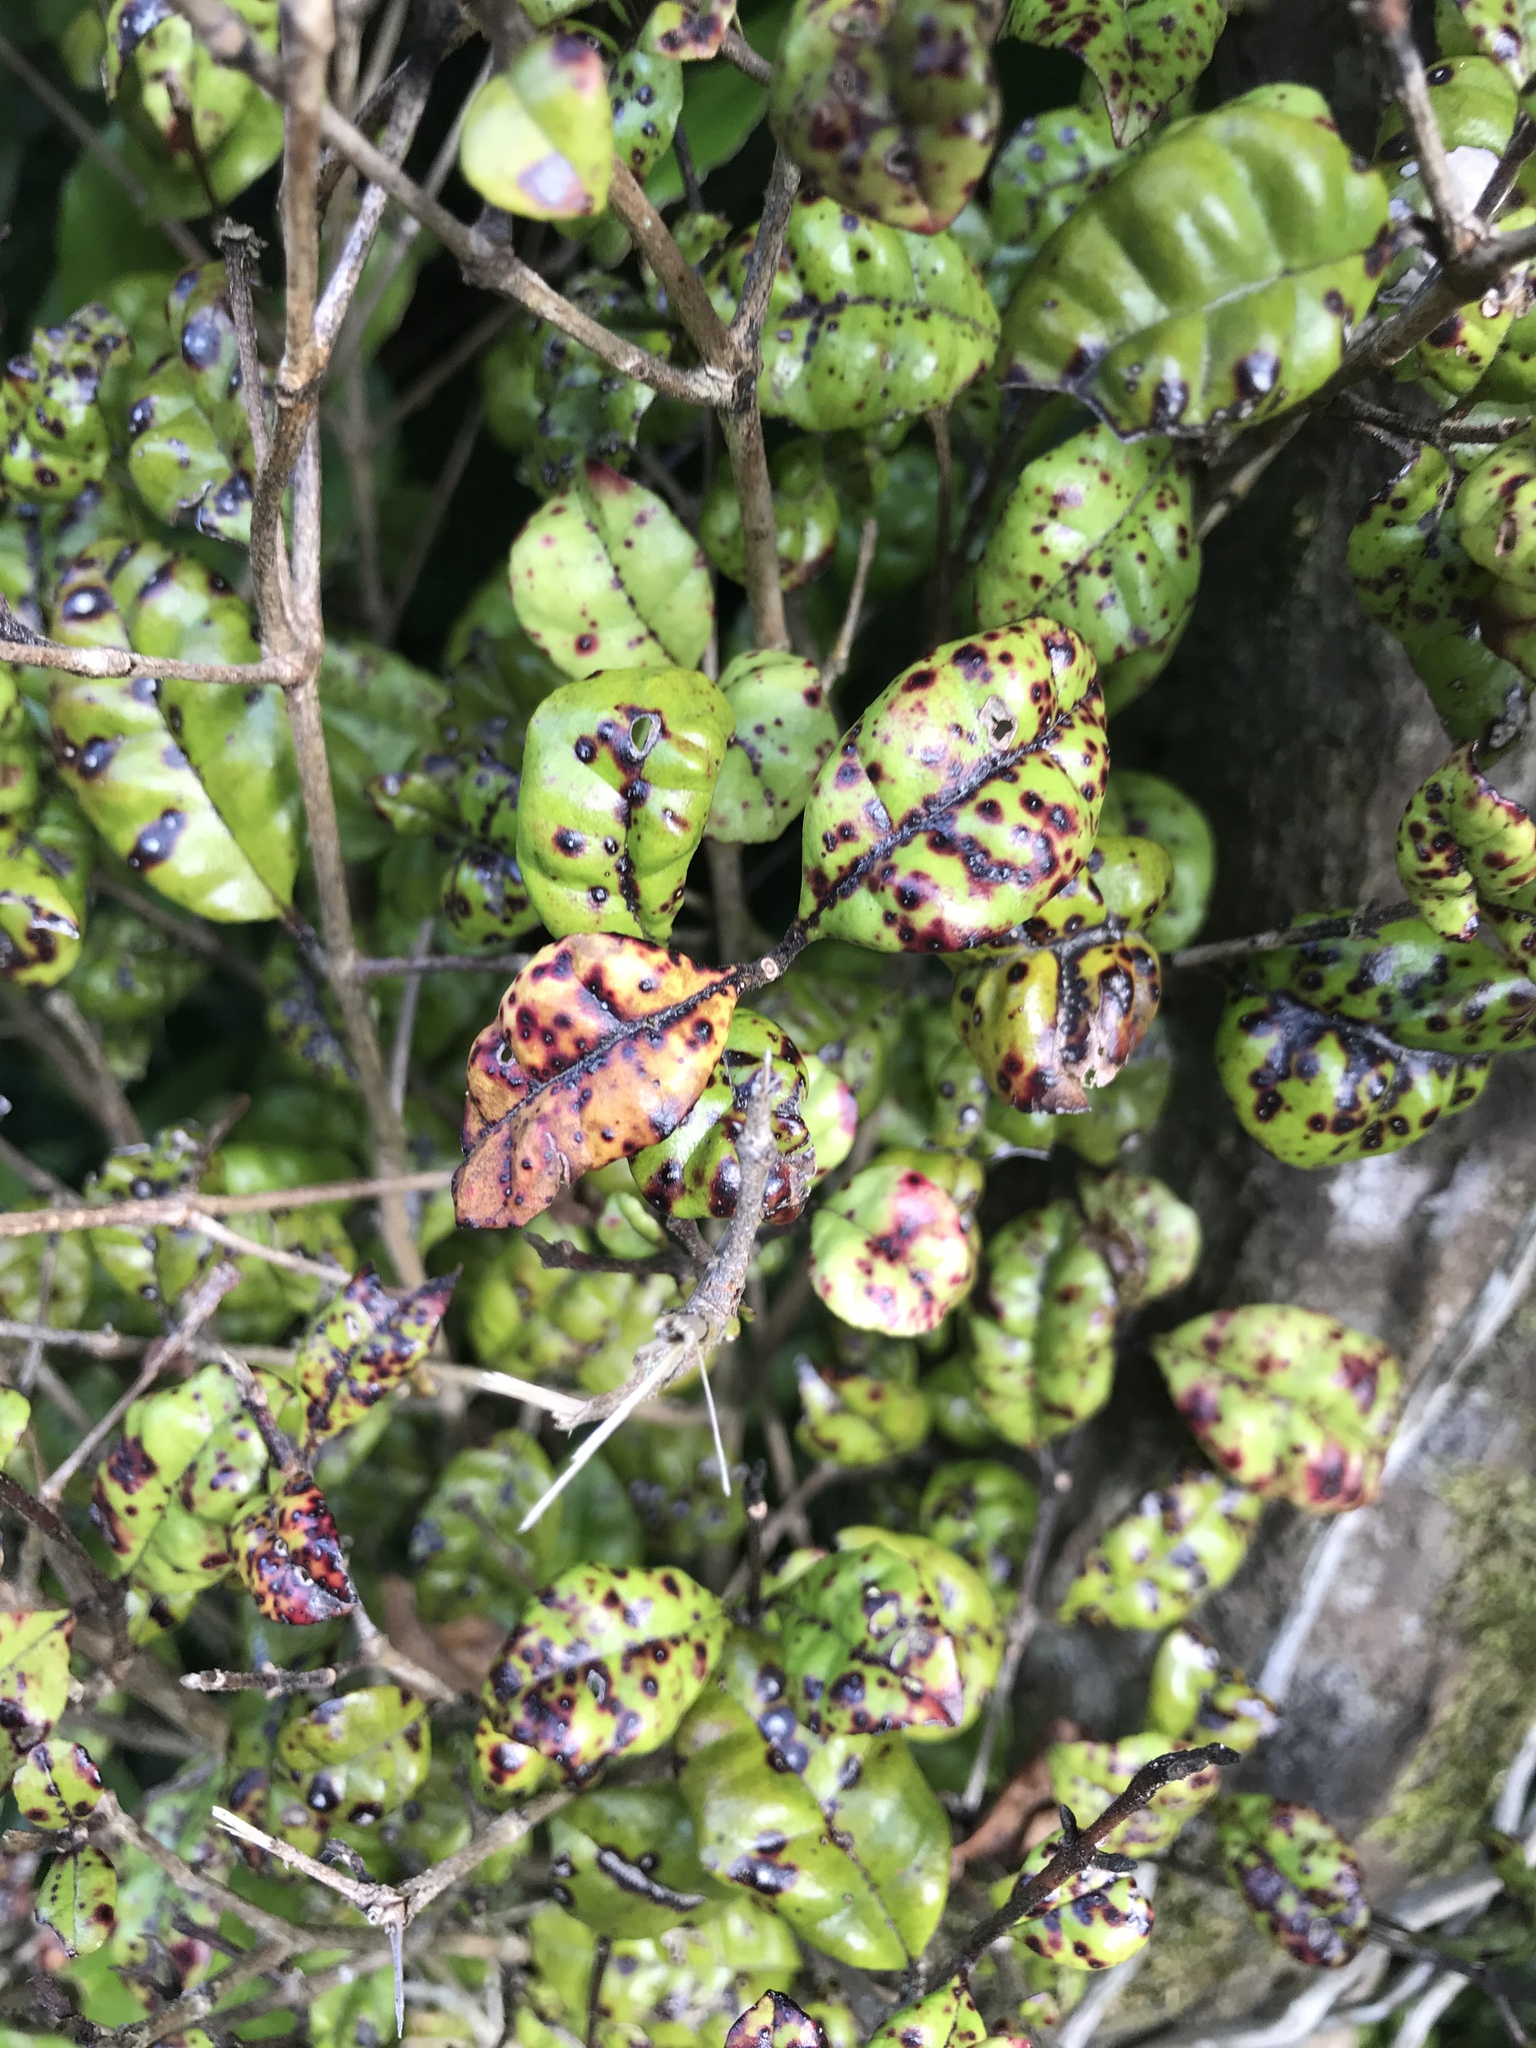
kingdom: Plantae
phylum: Tracheophyta
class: Magnoliopsida
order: Myrtales
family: Myrtaceae
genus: Lophomyrtus
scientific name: Lophomyrtus bullata
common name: Rama rama
